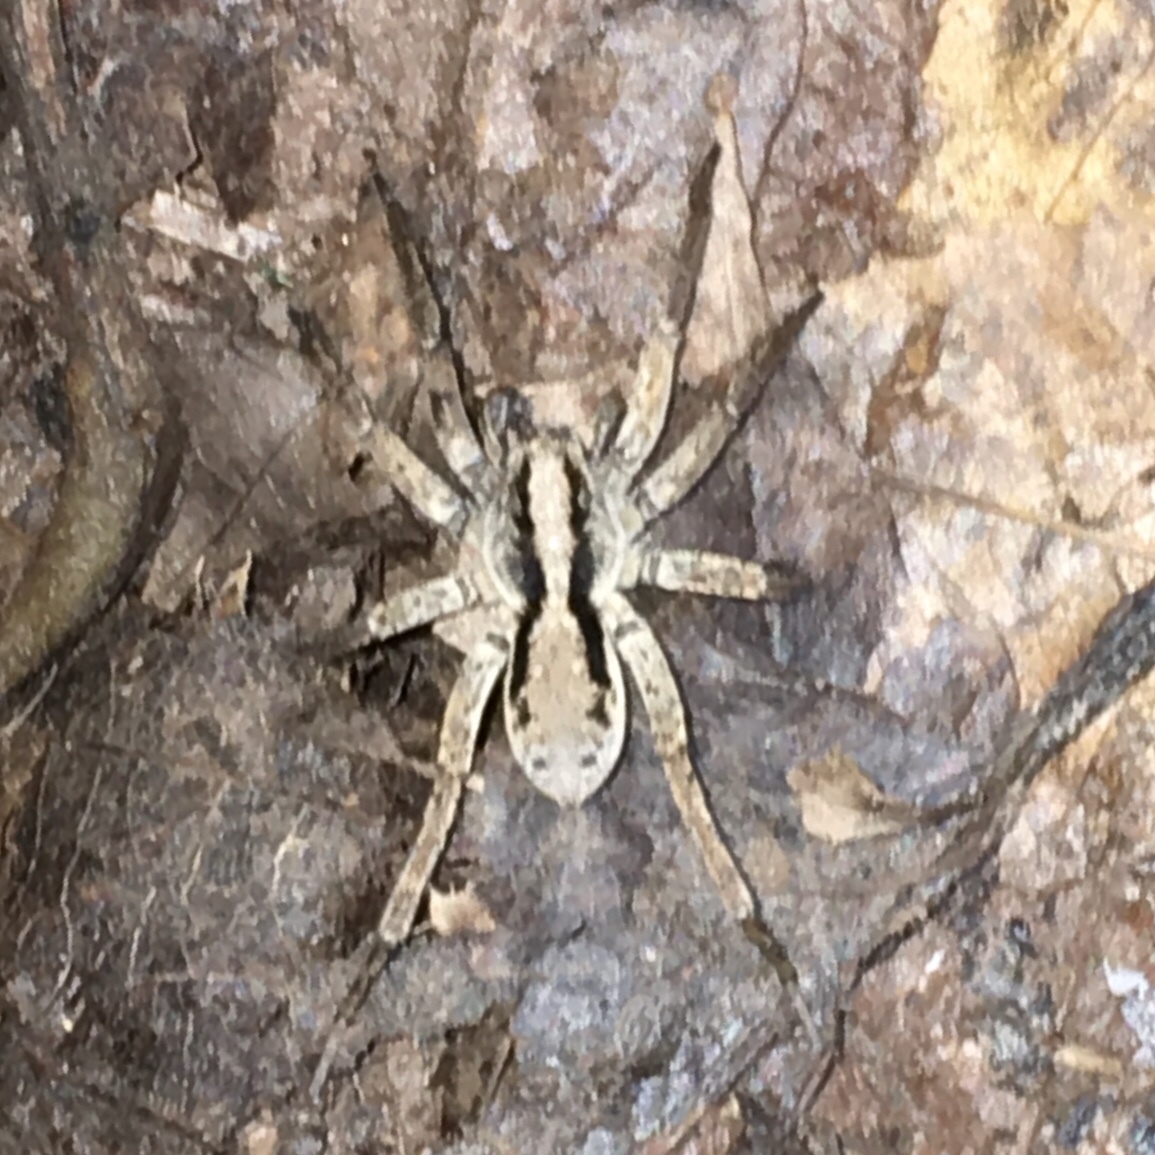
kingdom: Animalia
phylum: Arthropoda
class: Arachnida
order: Araneae
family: Lycosidae
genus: Gladicosa
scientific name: Gladicosa gulosa
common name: Drumming sword wolf spider
